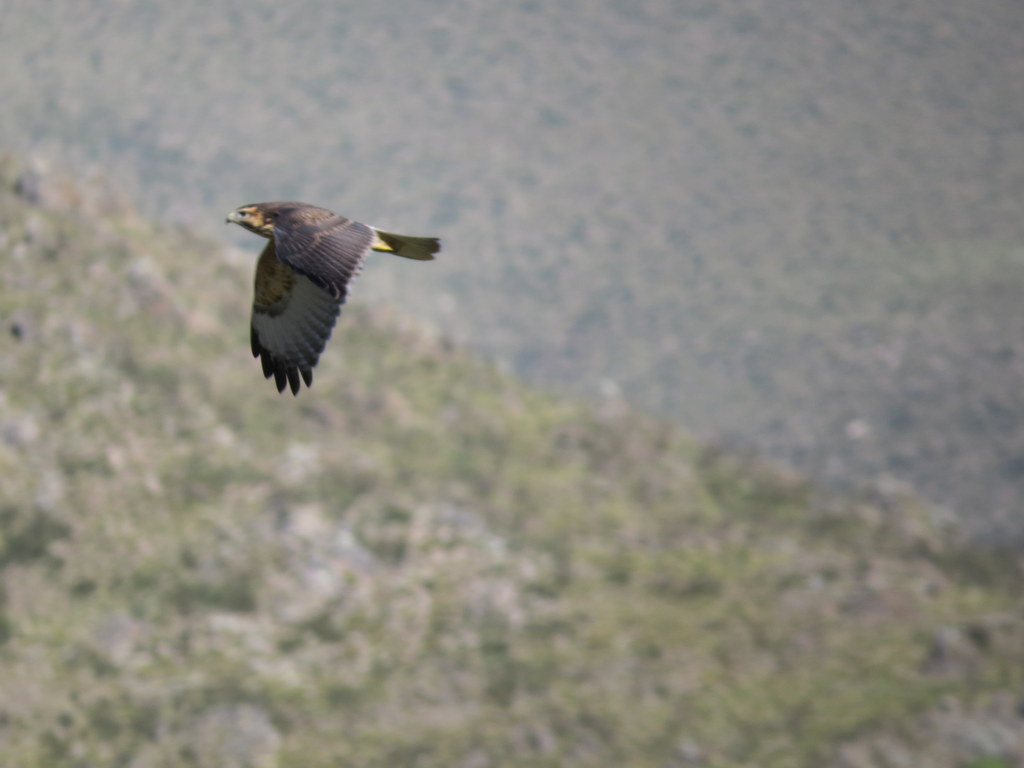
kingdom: Animalia
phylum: Chordata
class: Aves
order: Accipitriformes
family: Accipitridae
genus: Buteo
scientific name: Buteo polyosoma
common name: Variable hawk
